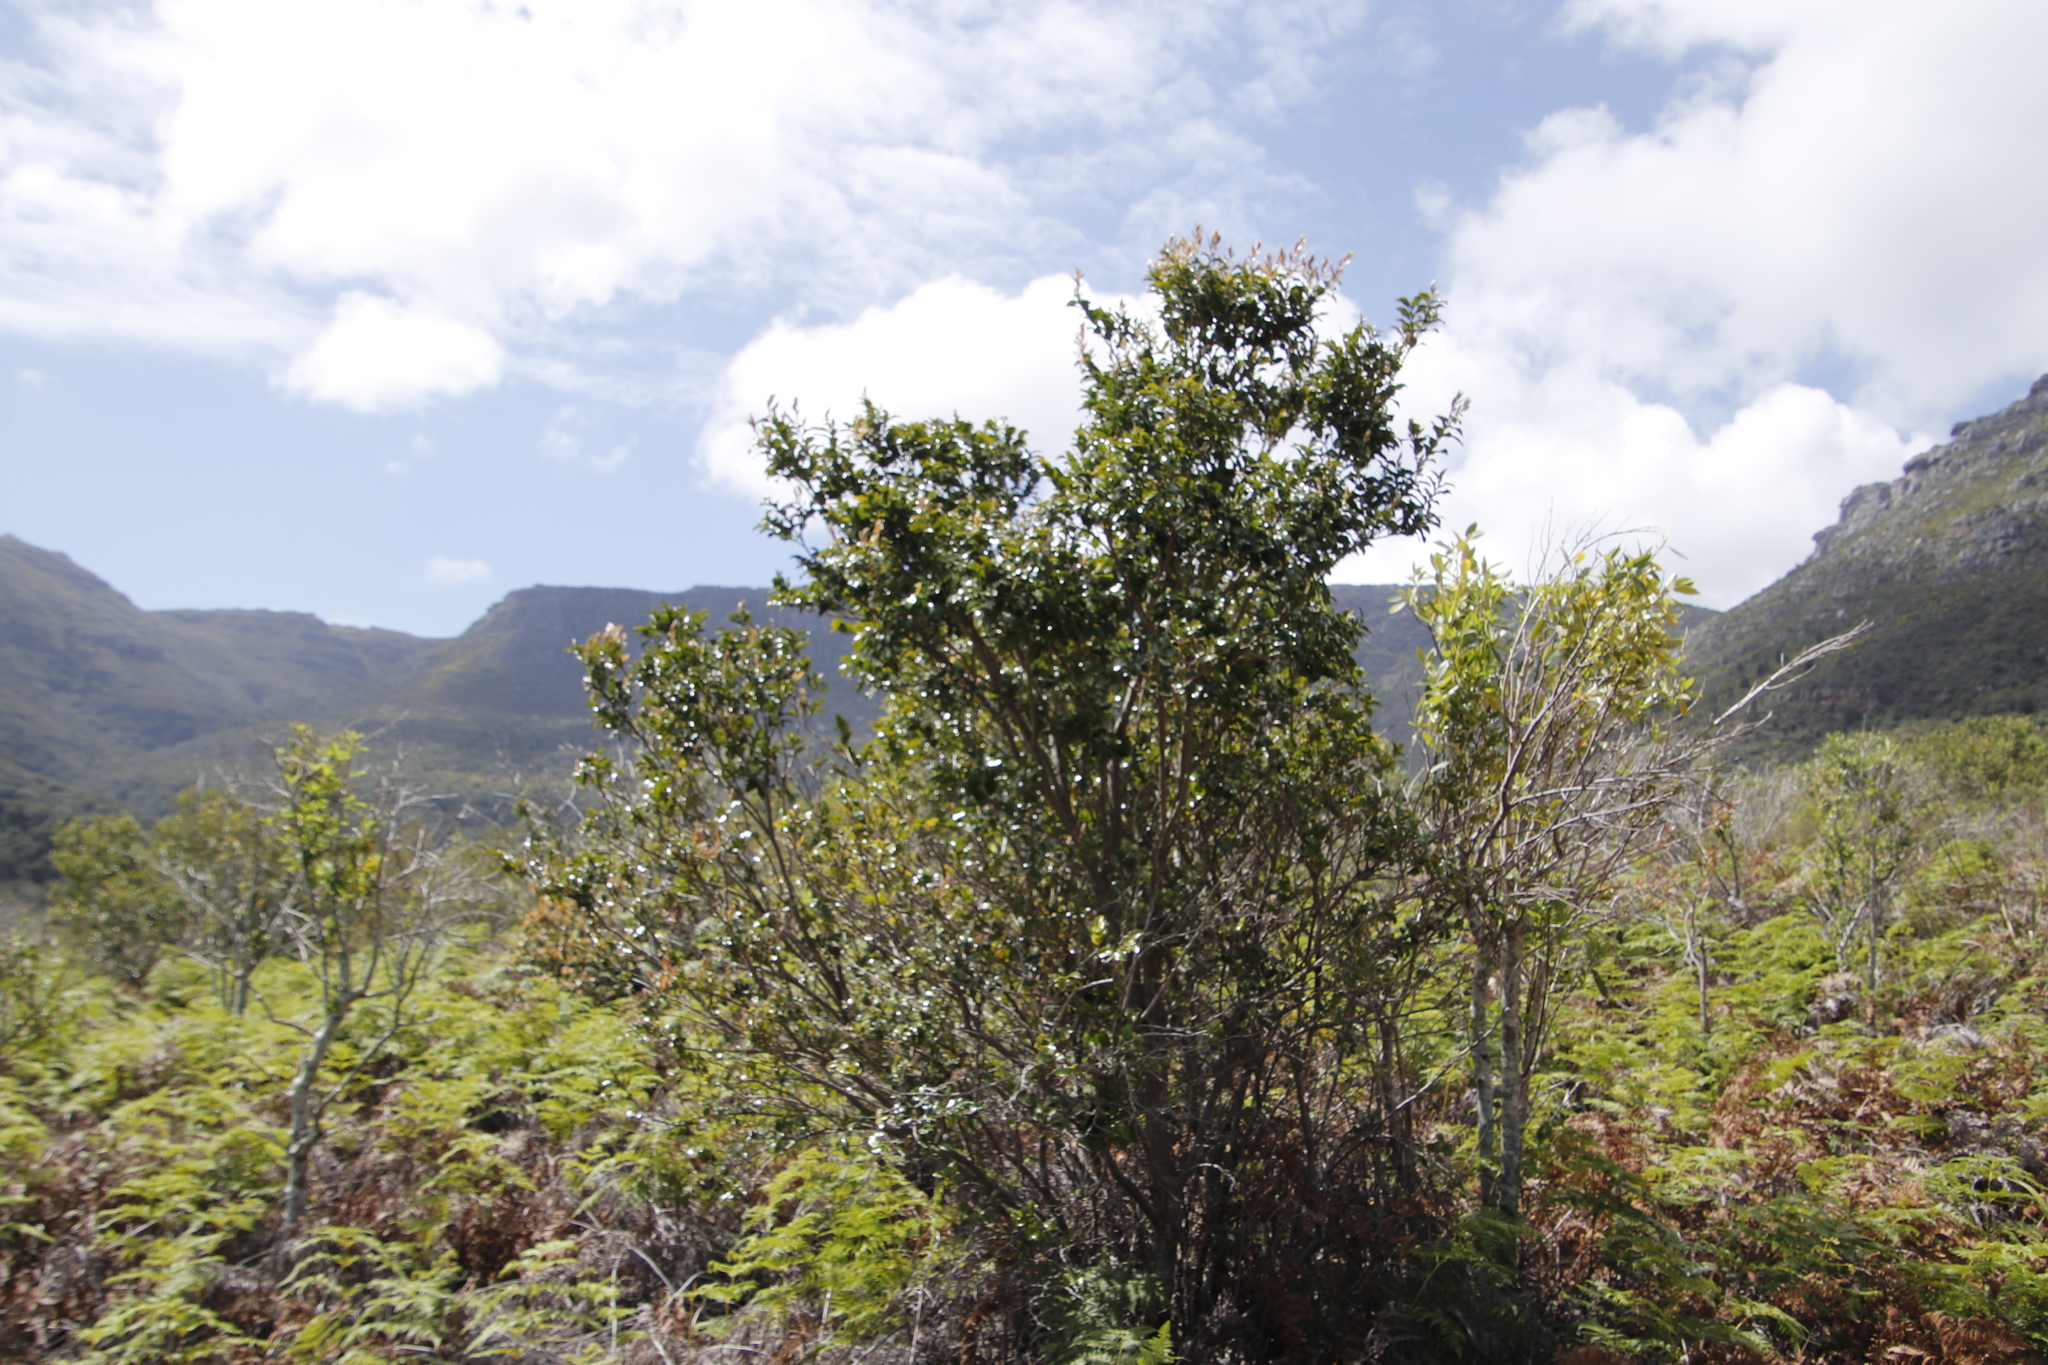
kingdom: Plantae
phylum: Tracheophyta
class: Magnoliopsida
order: Ericales
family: Ebenaceae
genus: Diospyros
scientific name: Diospyros whyteana
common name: Bladder-nut
